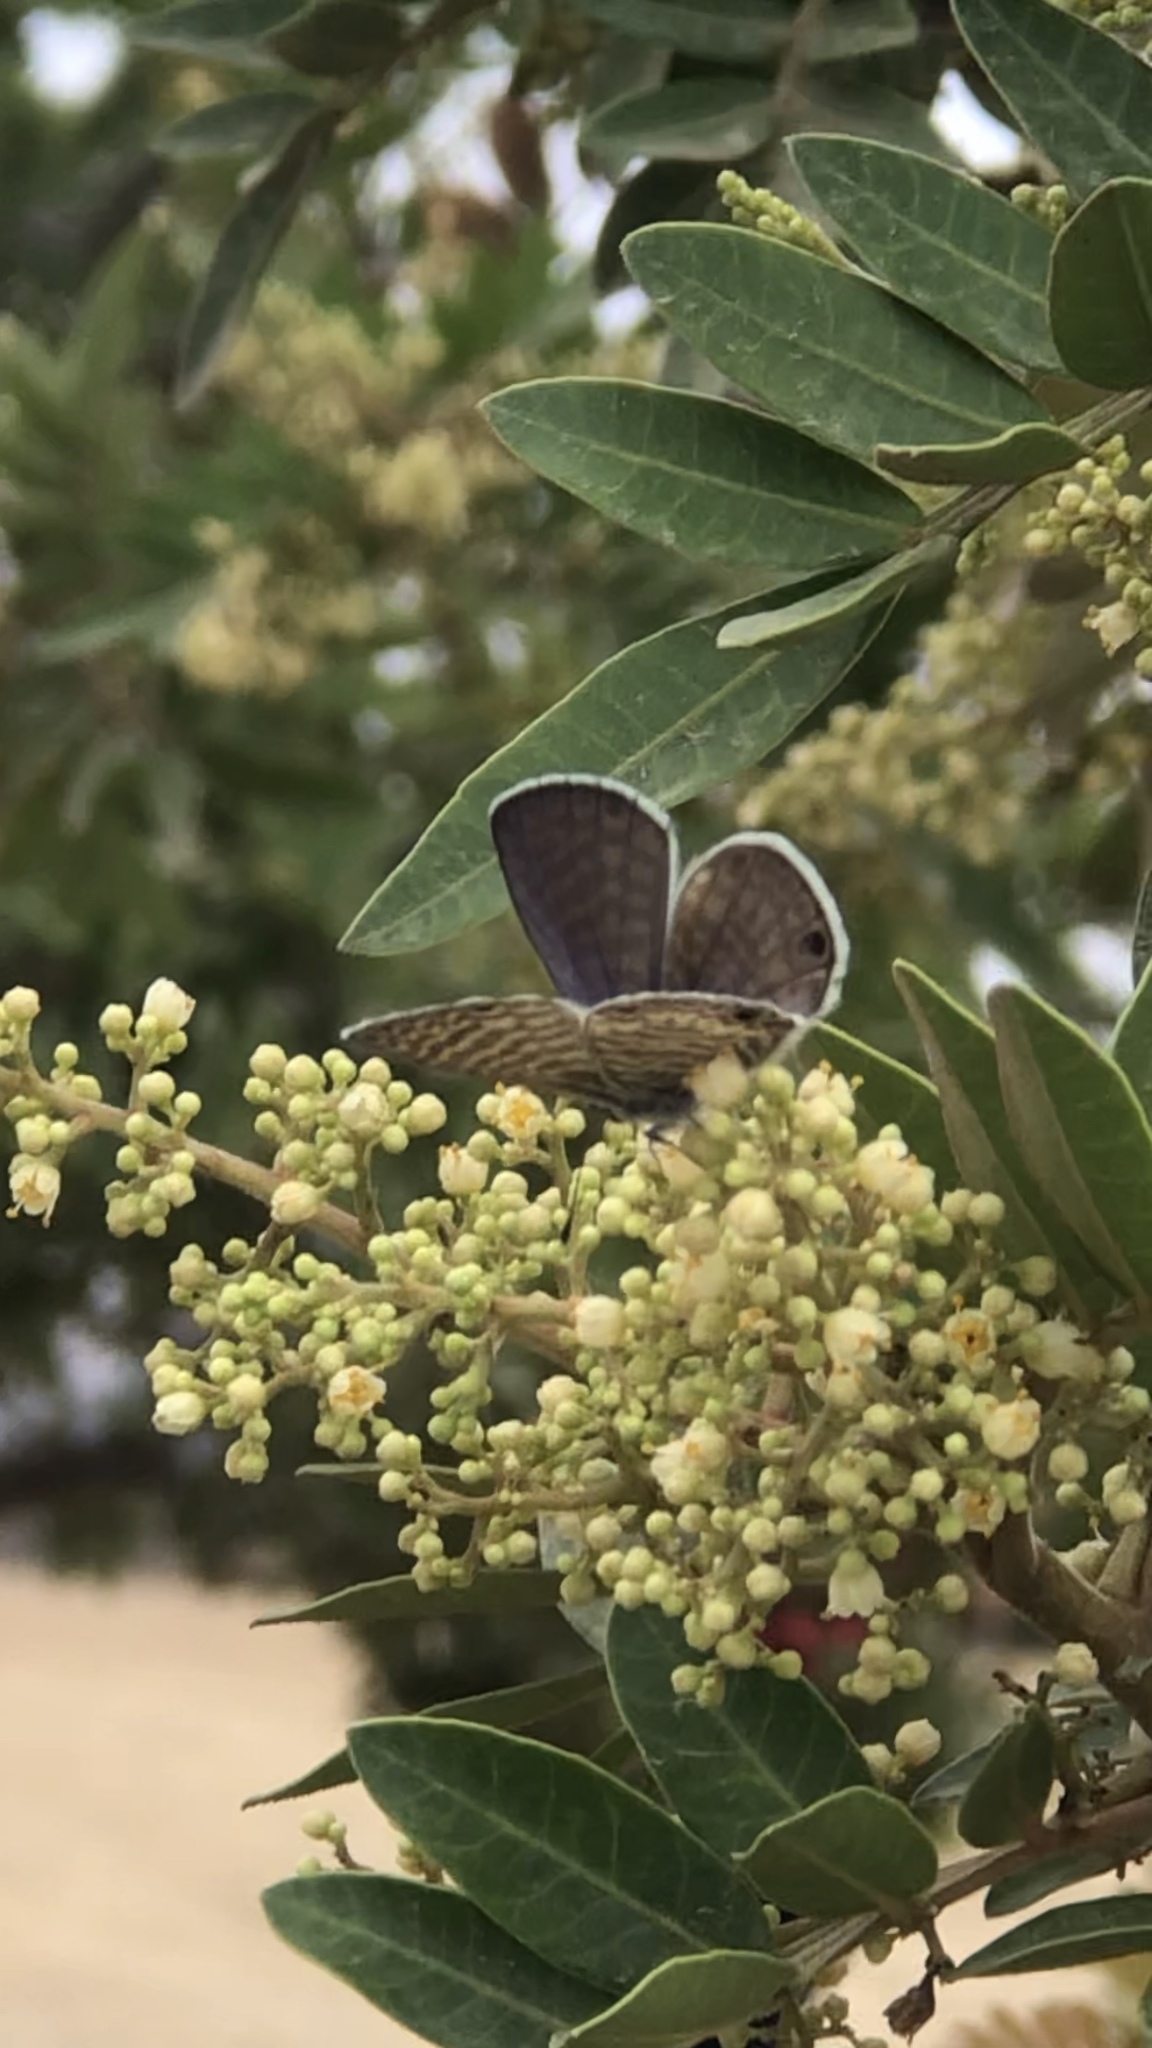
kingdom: Animalia
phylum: Arthropoda
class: Insecta
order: Lepidoptera
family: Lycaenidae
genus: Leptotes
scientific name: Leptotes marina
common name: Marine blue
